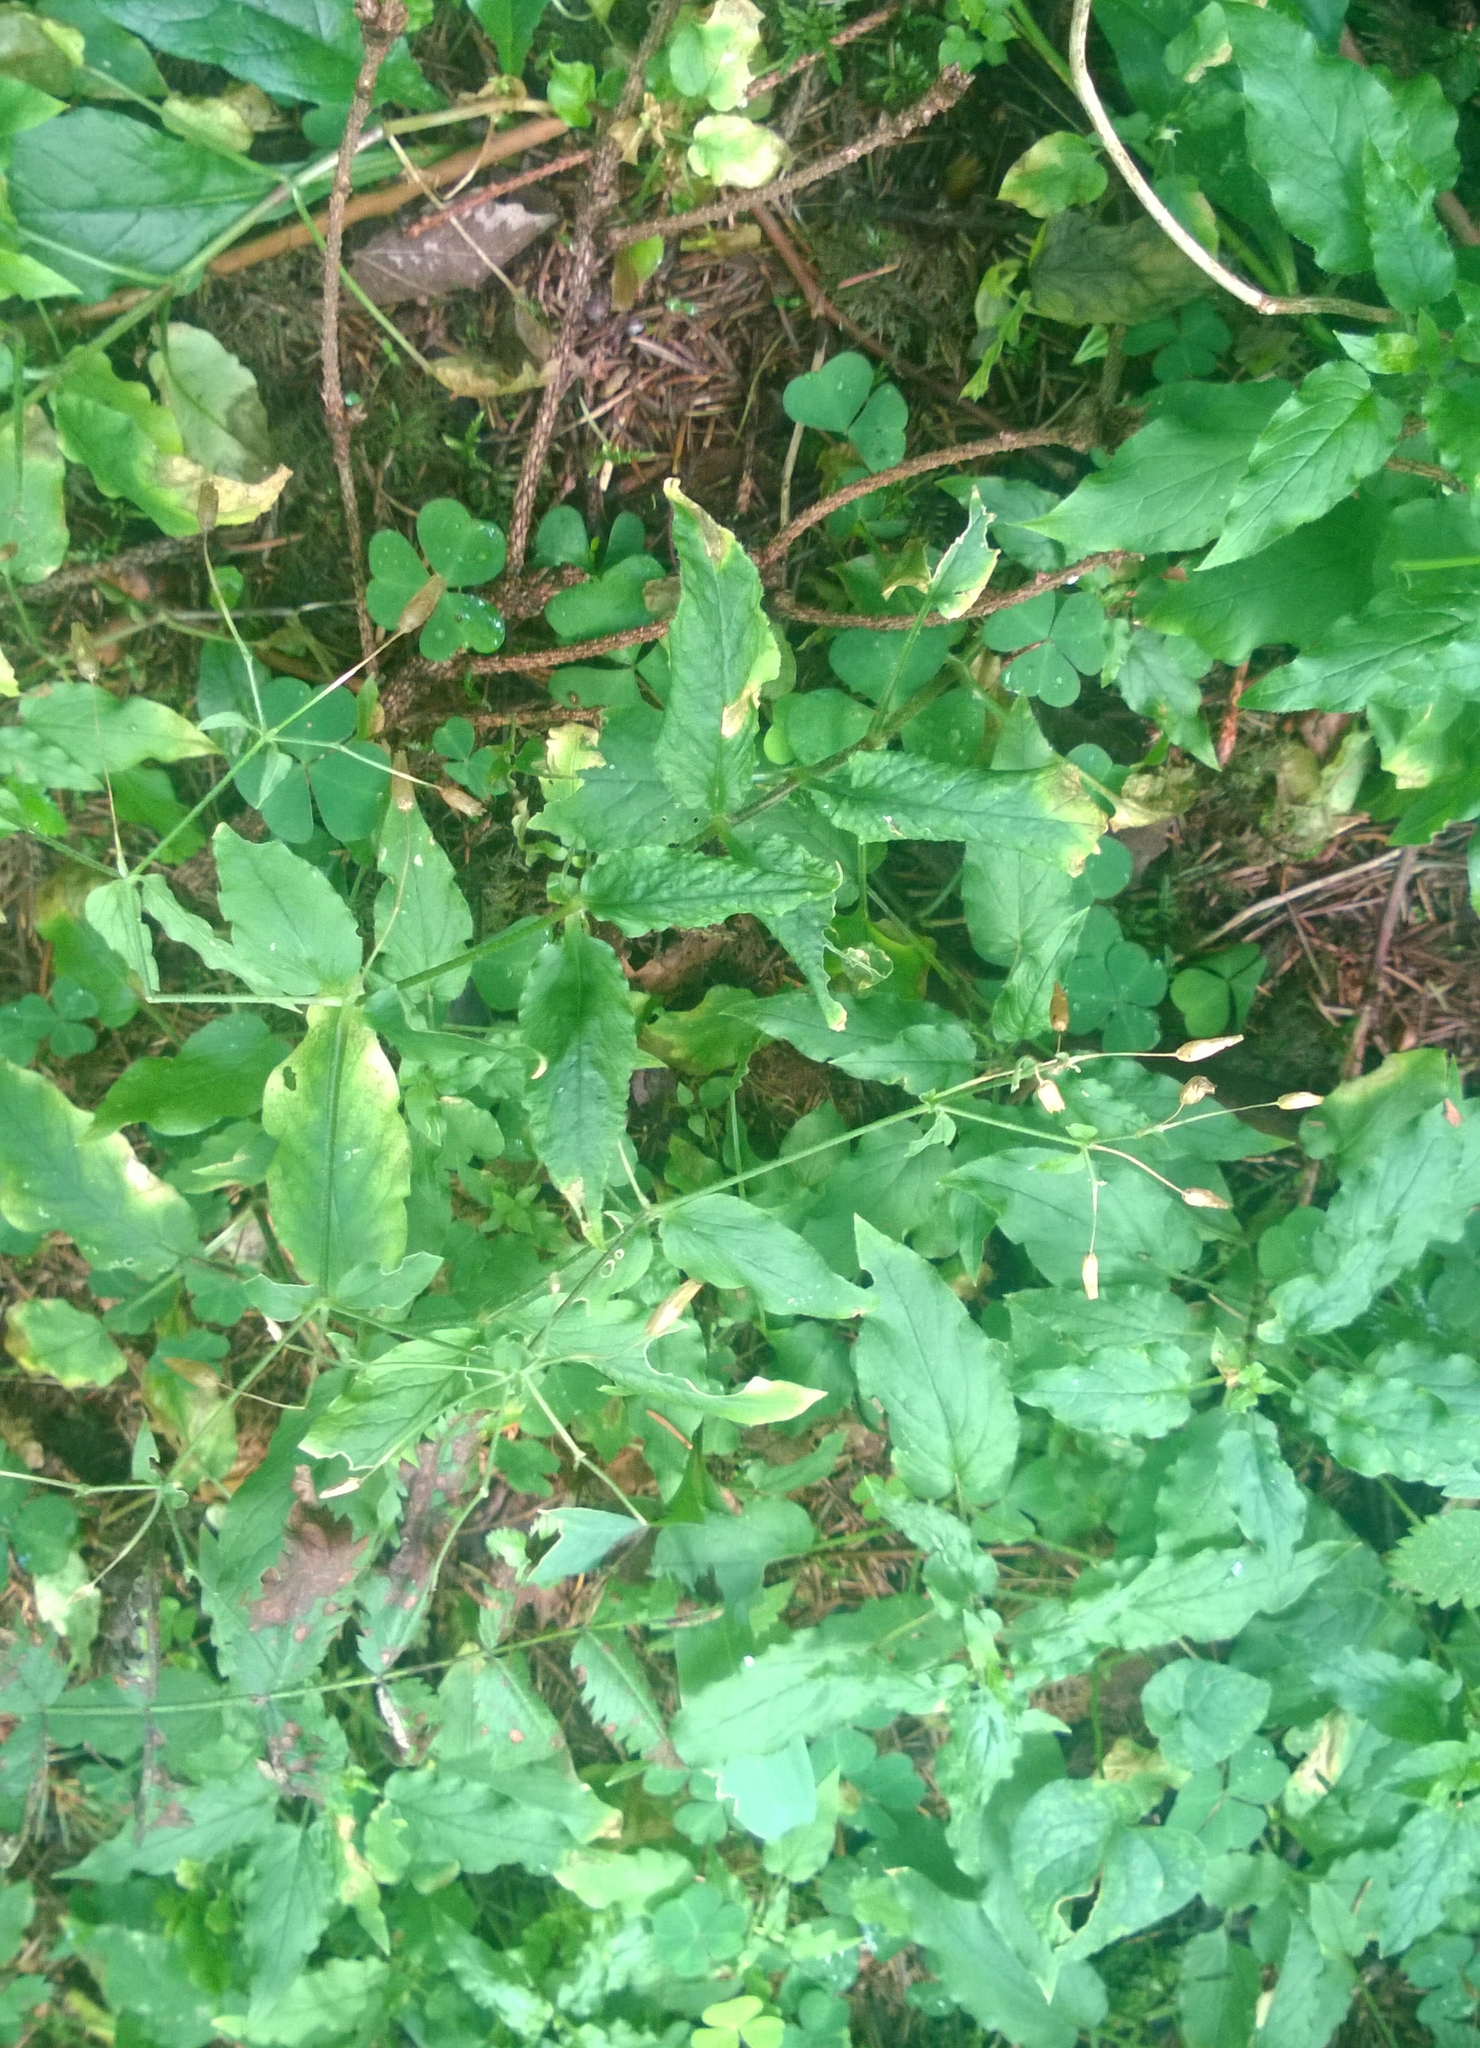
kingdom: Plantae
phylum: Tracheophyta
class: Magnoliopsida
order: Caryophyllales
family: Caryophyllaceae
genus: Stellaria
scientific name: Stellaria nemorum
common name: Wood stitchwort
